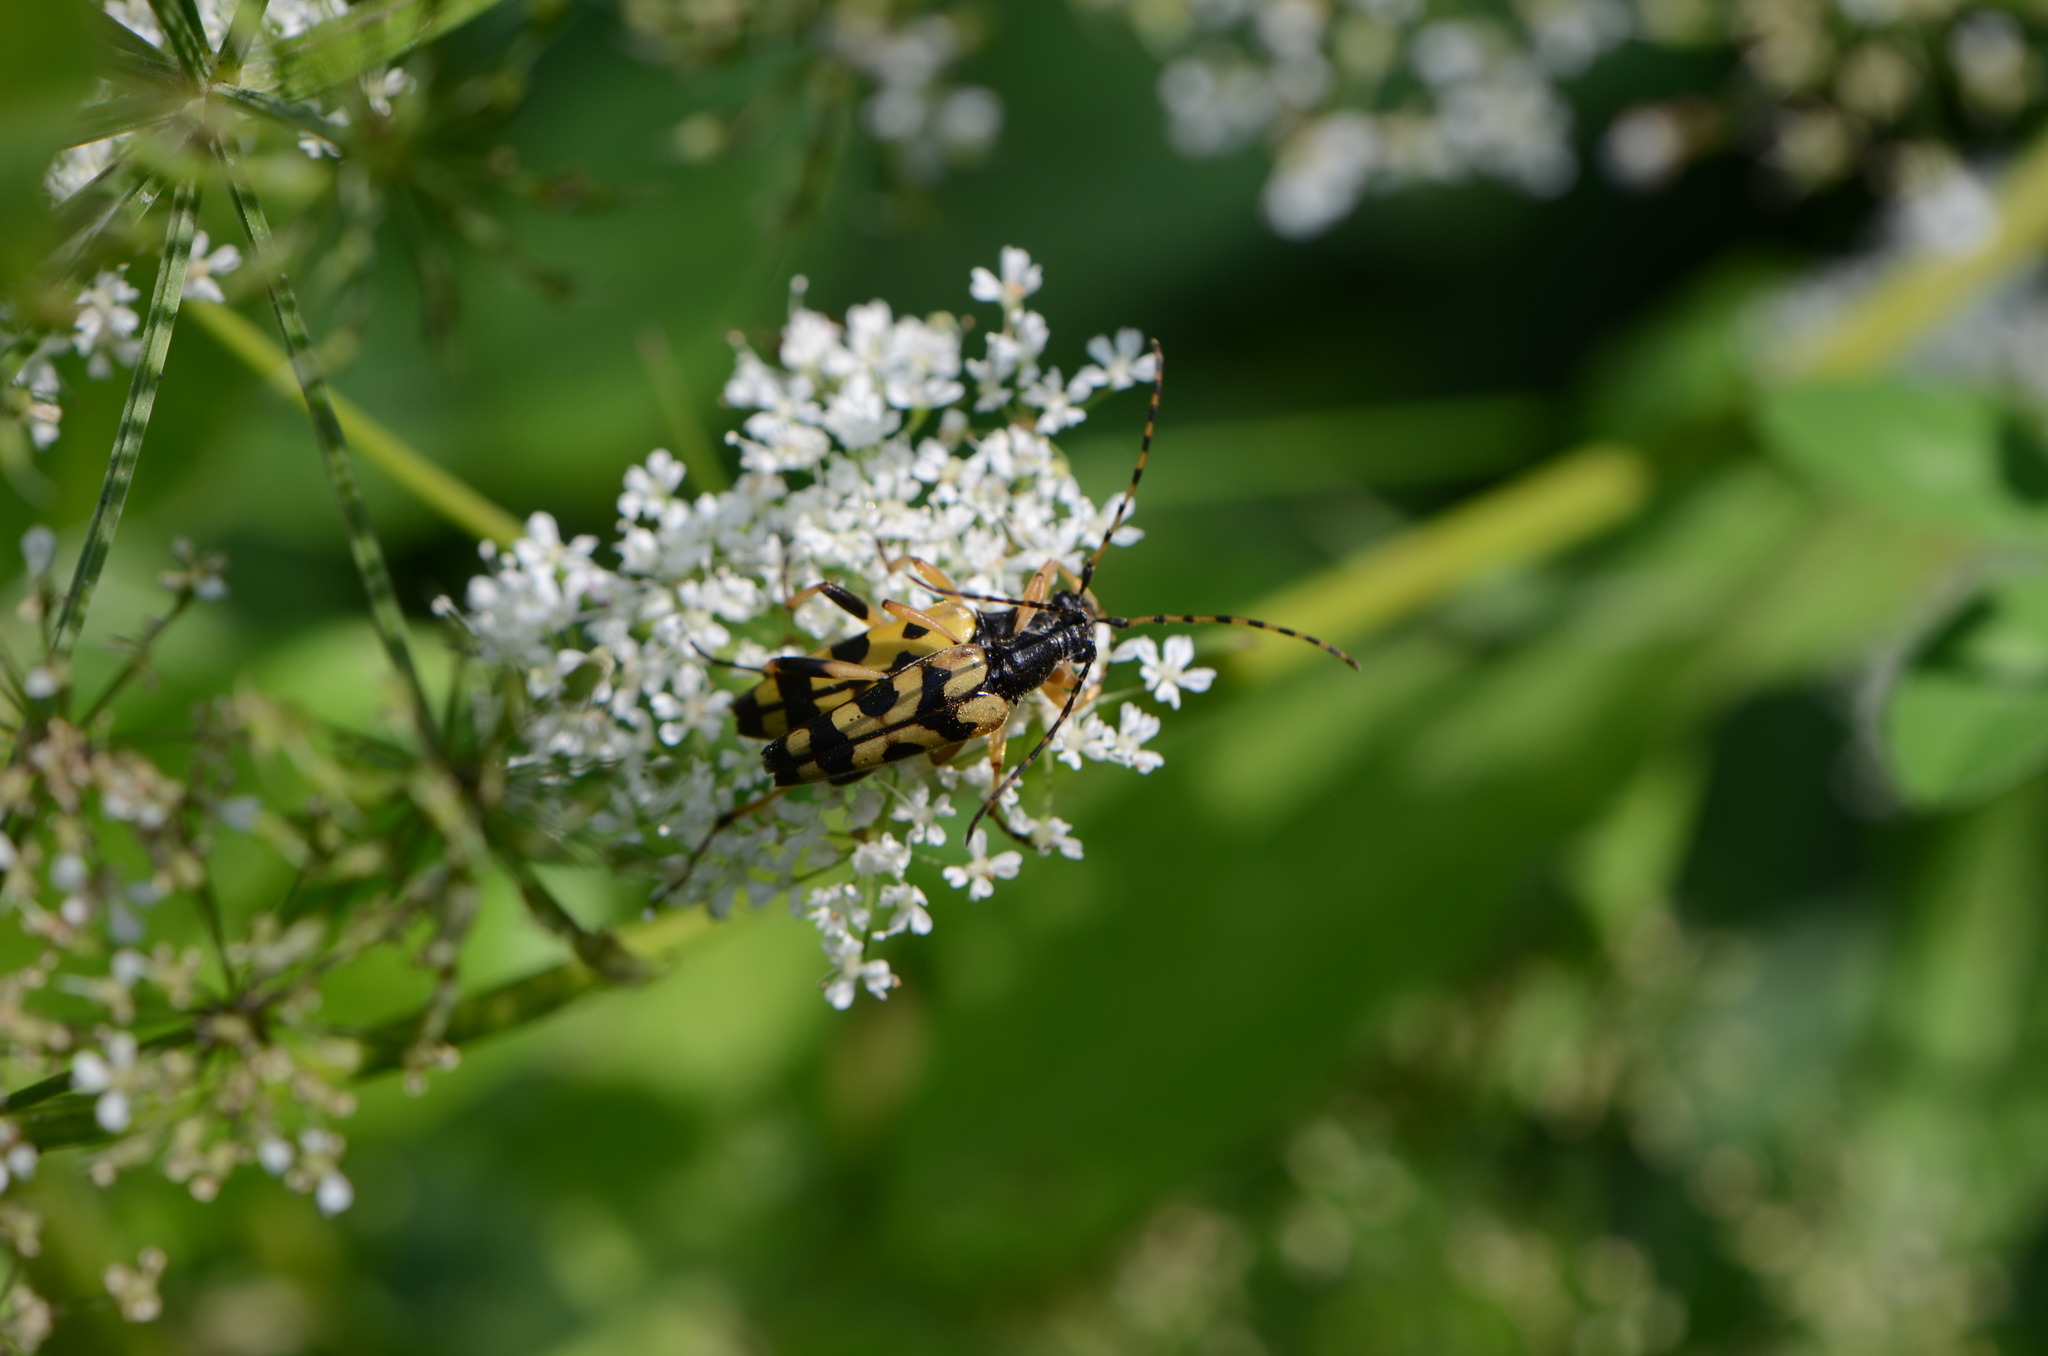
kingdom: Animalia
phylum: Arthropoda
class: Insecta
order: Coleoptera
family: Cerambycidae
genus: Rutpela
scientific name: Rutpela maculata
